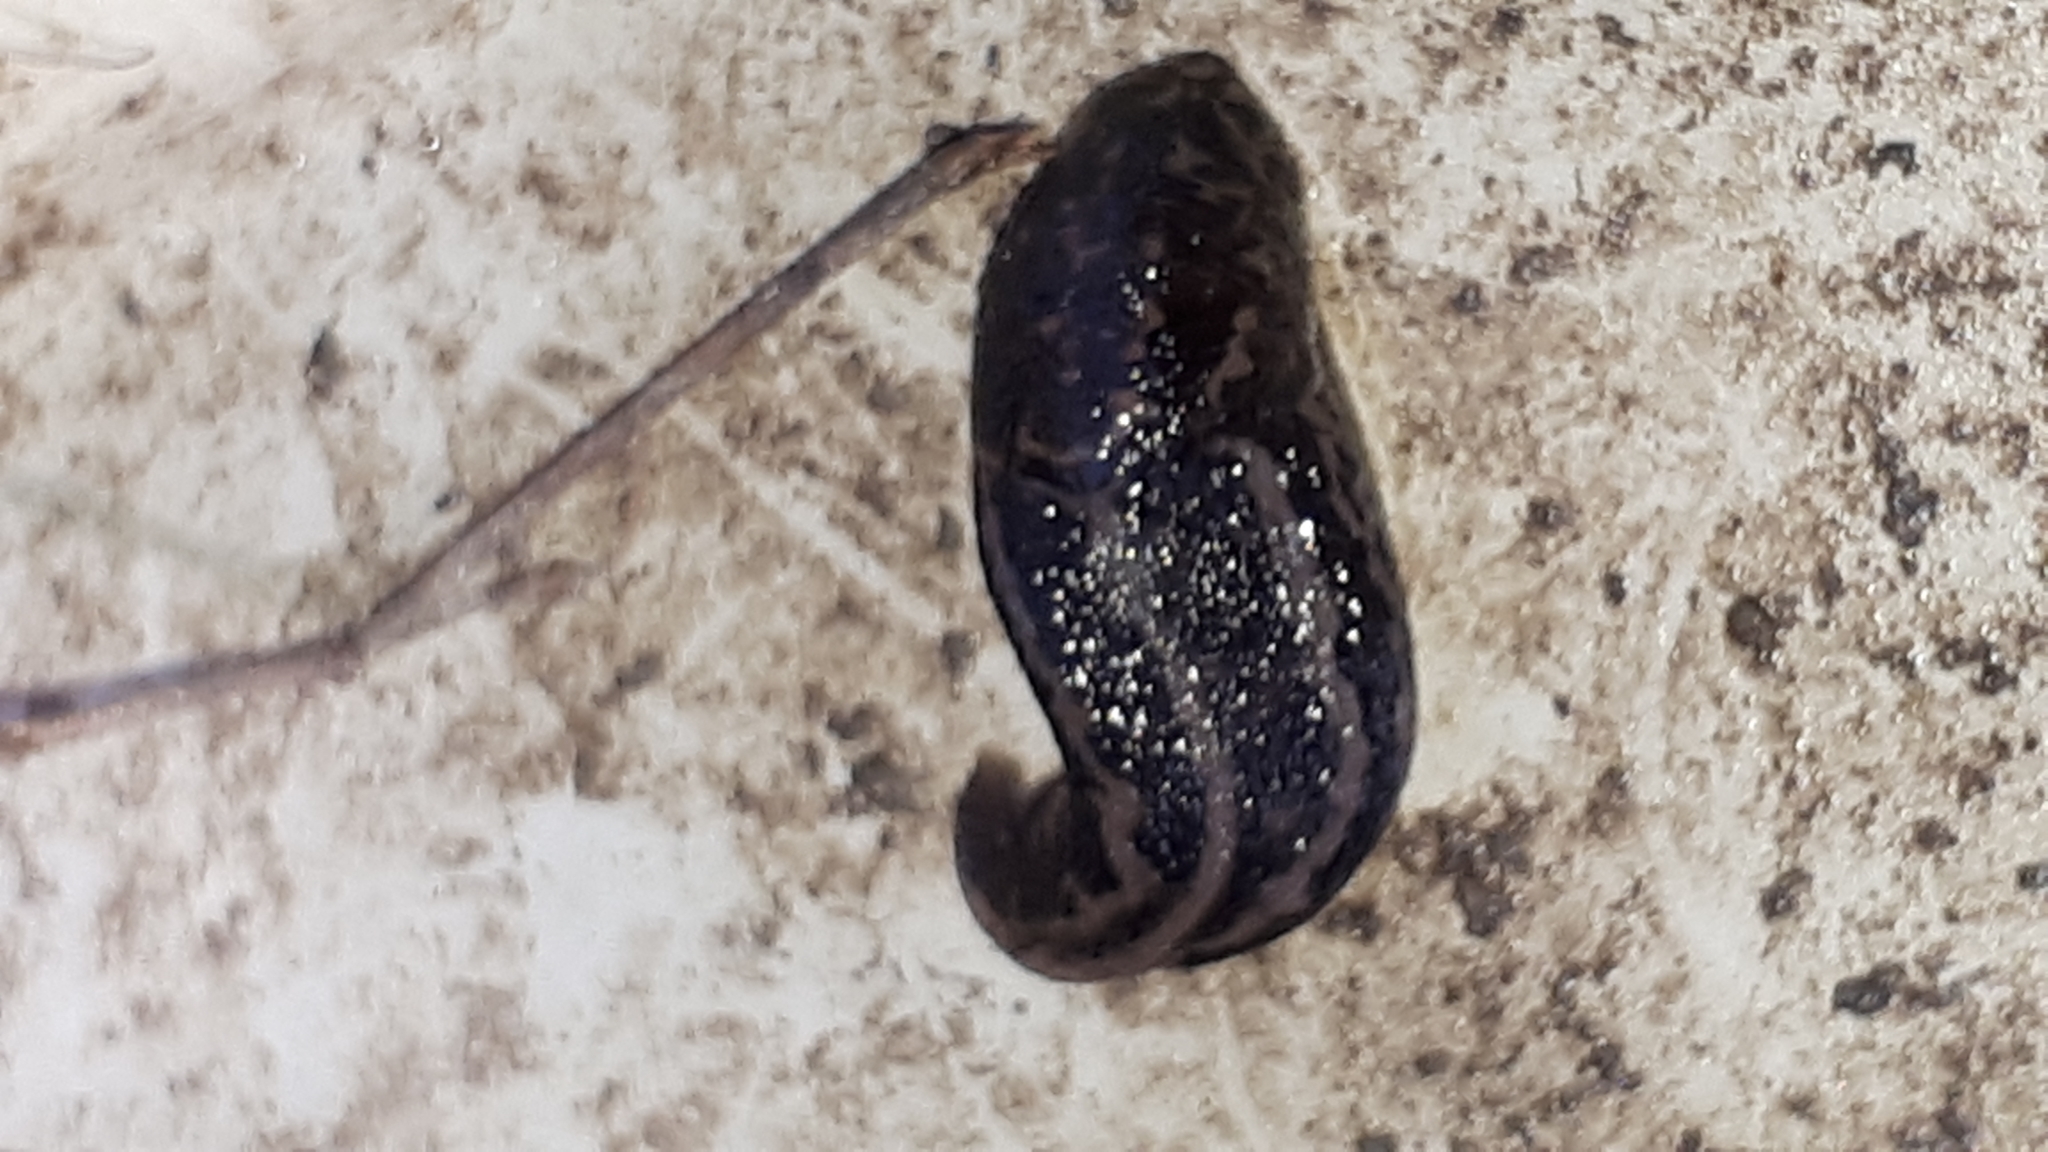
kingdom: Animalia
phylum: Mollusca
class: Gastropoda
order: Stylommatophora
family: Limacidae
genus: Limax
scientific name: Limax maximus
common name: Great grey slug
